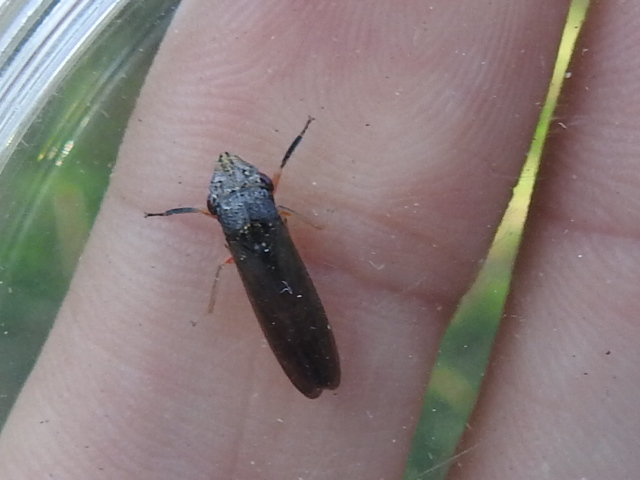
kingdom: Animalia
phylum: Arthropoda
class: Insecta
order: Hemiptera
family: Cicadellidae
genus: Homalodisca
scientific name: Homalodisca insolita
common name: Johnson grass sharpshooter
